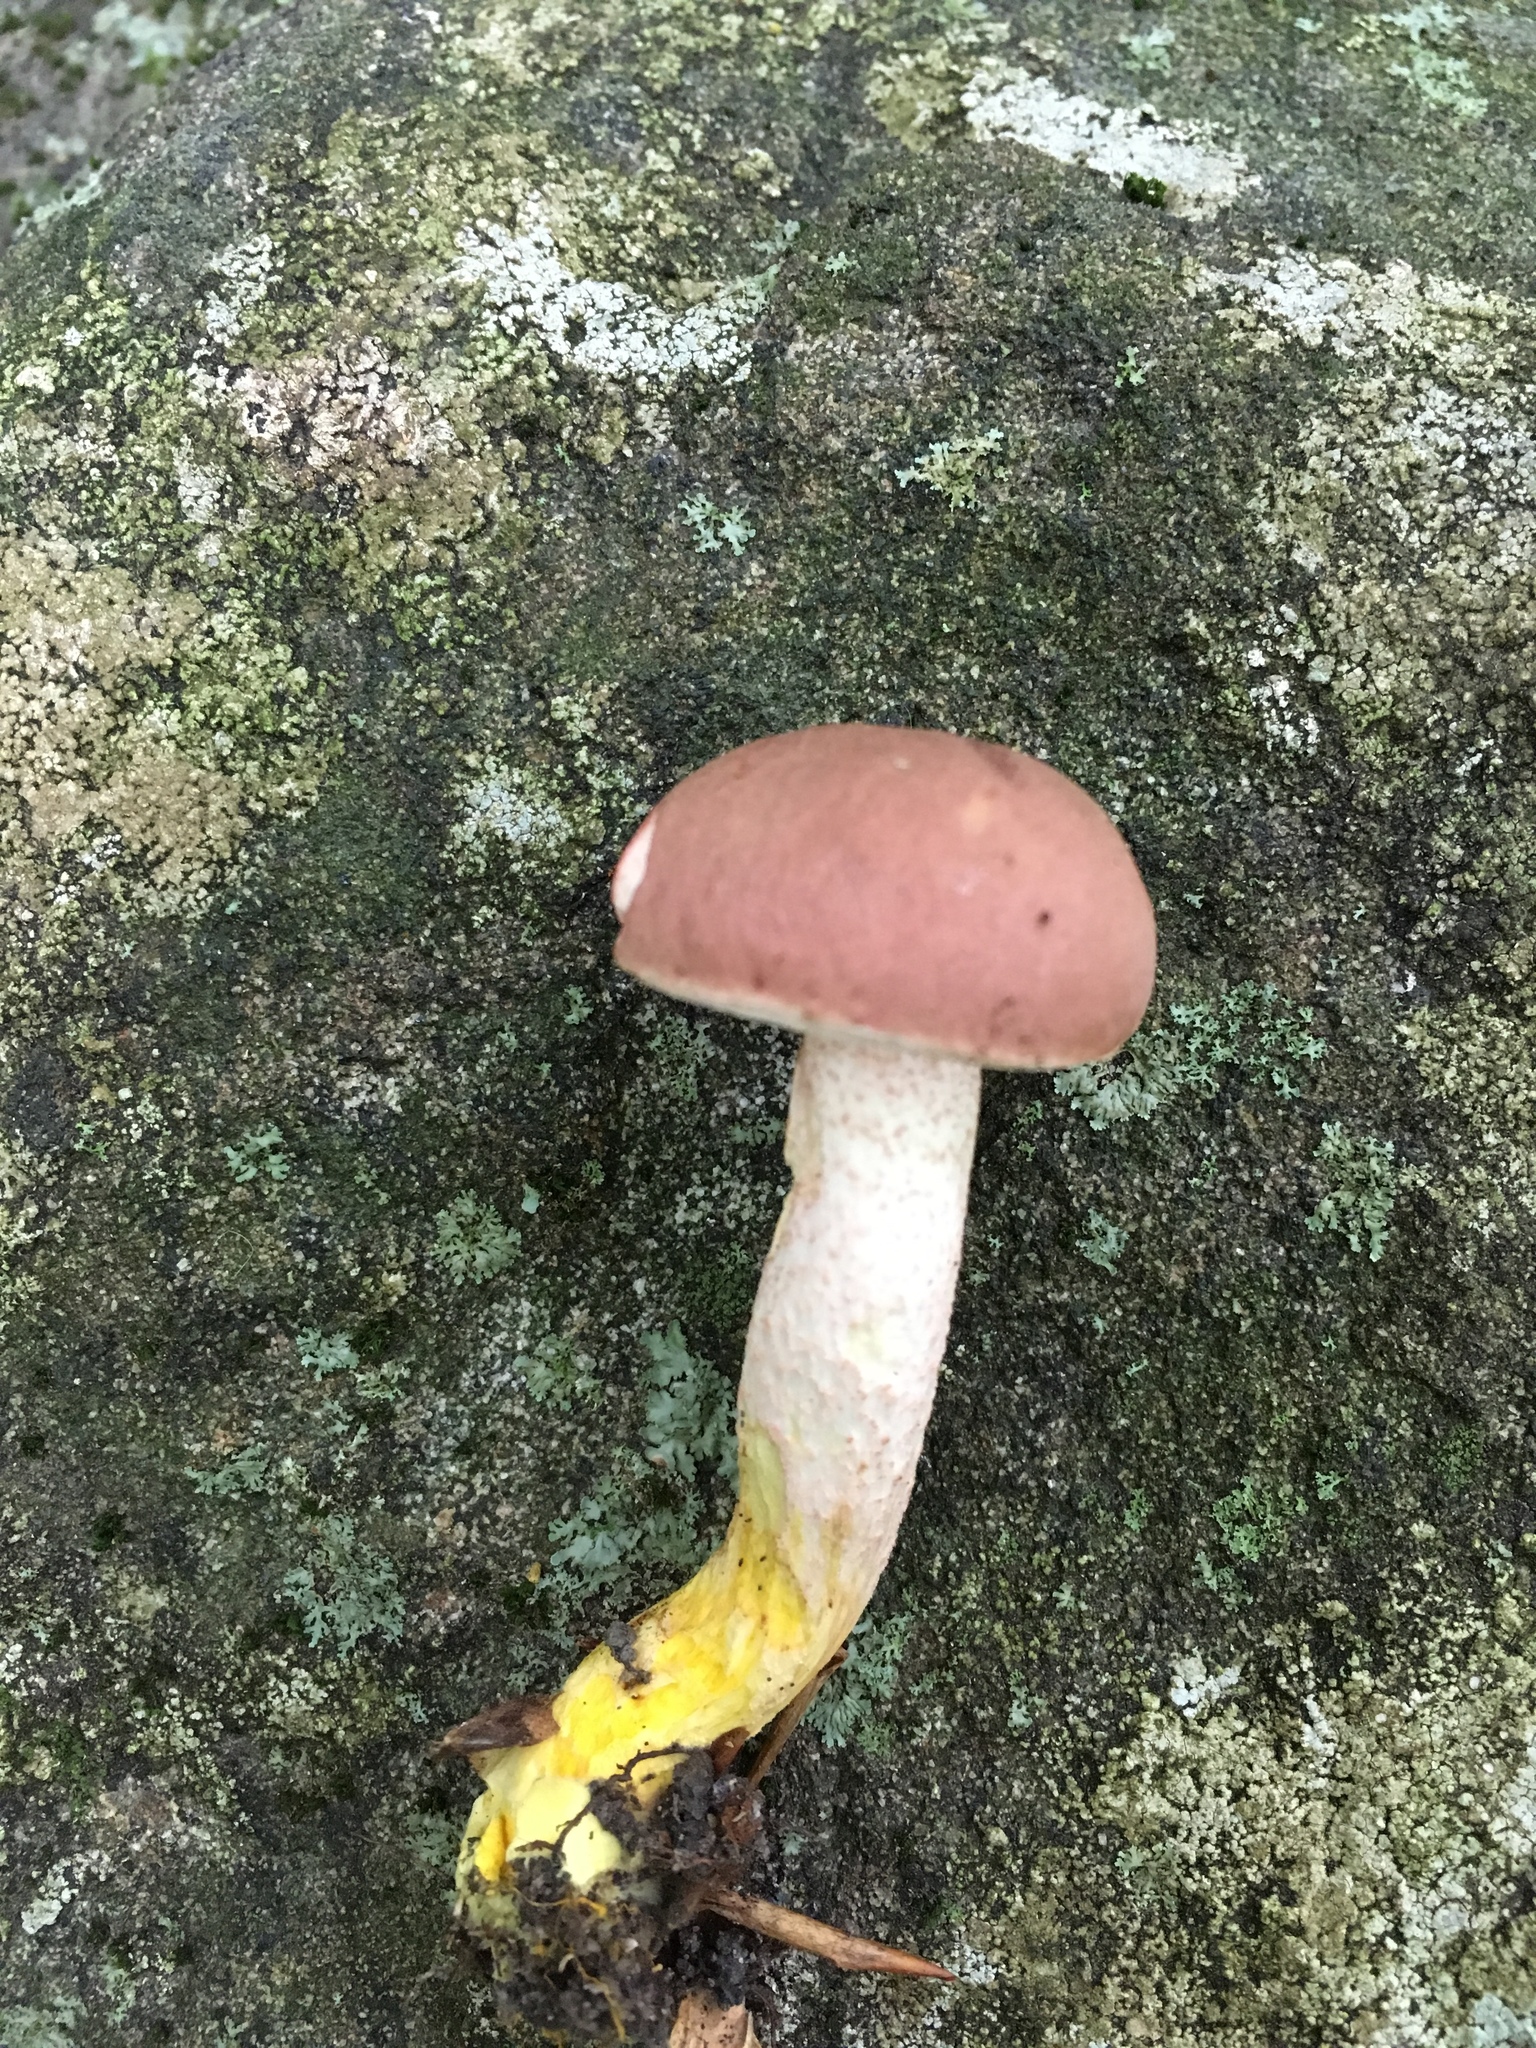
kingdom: Fungi
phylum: Basidiomycota
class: Agaricomycetes
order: Boletales
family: Boletaceae
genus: Harrya
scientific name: Harrya chromipes
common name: Chrome-footed bolete
